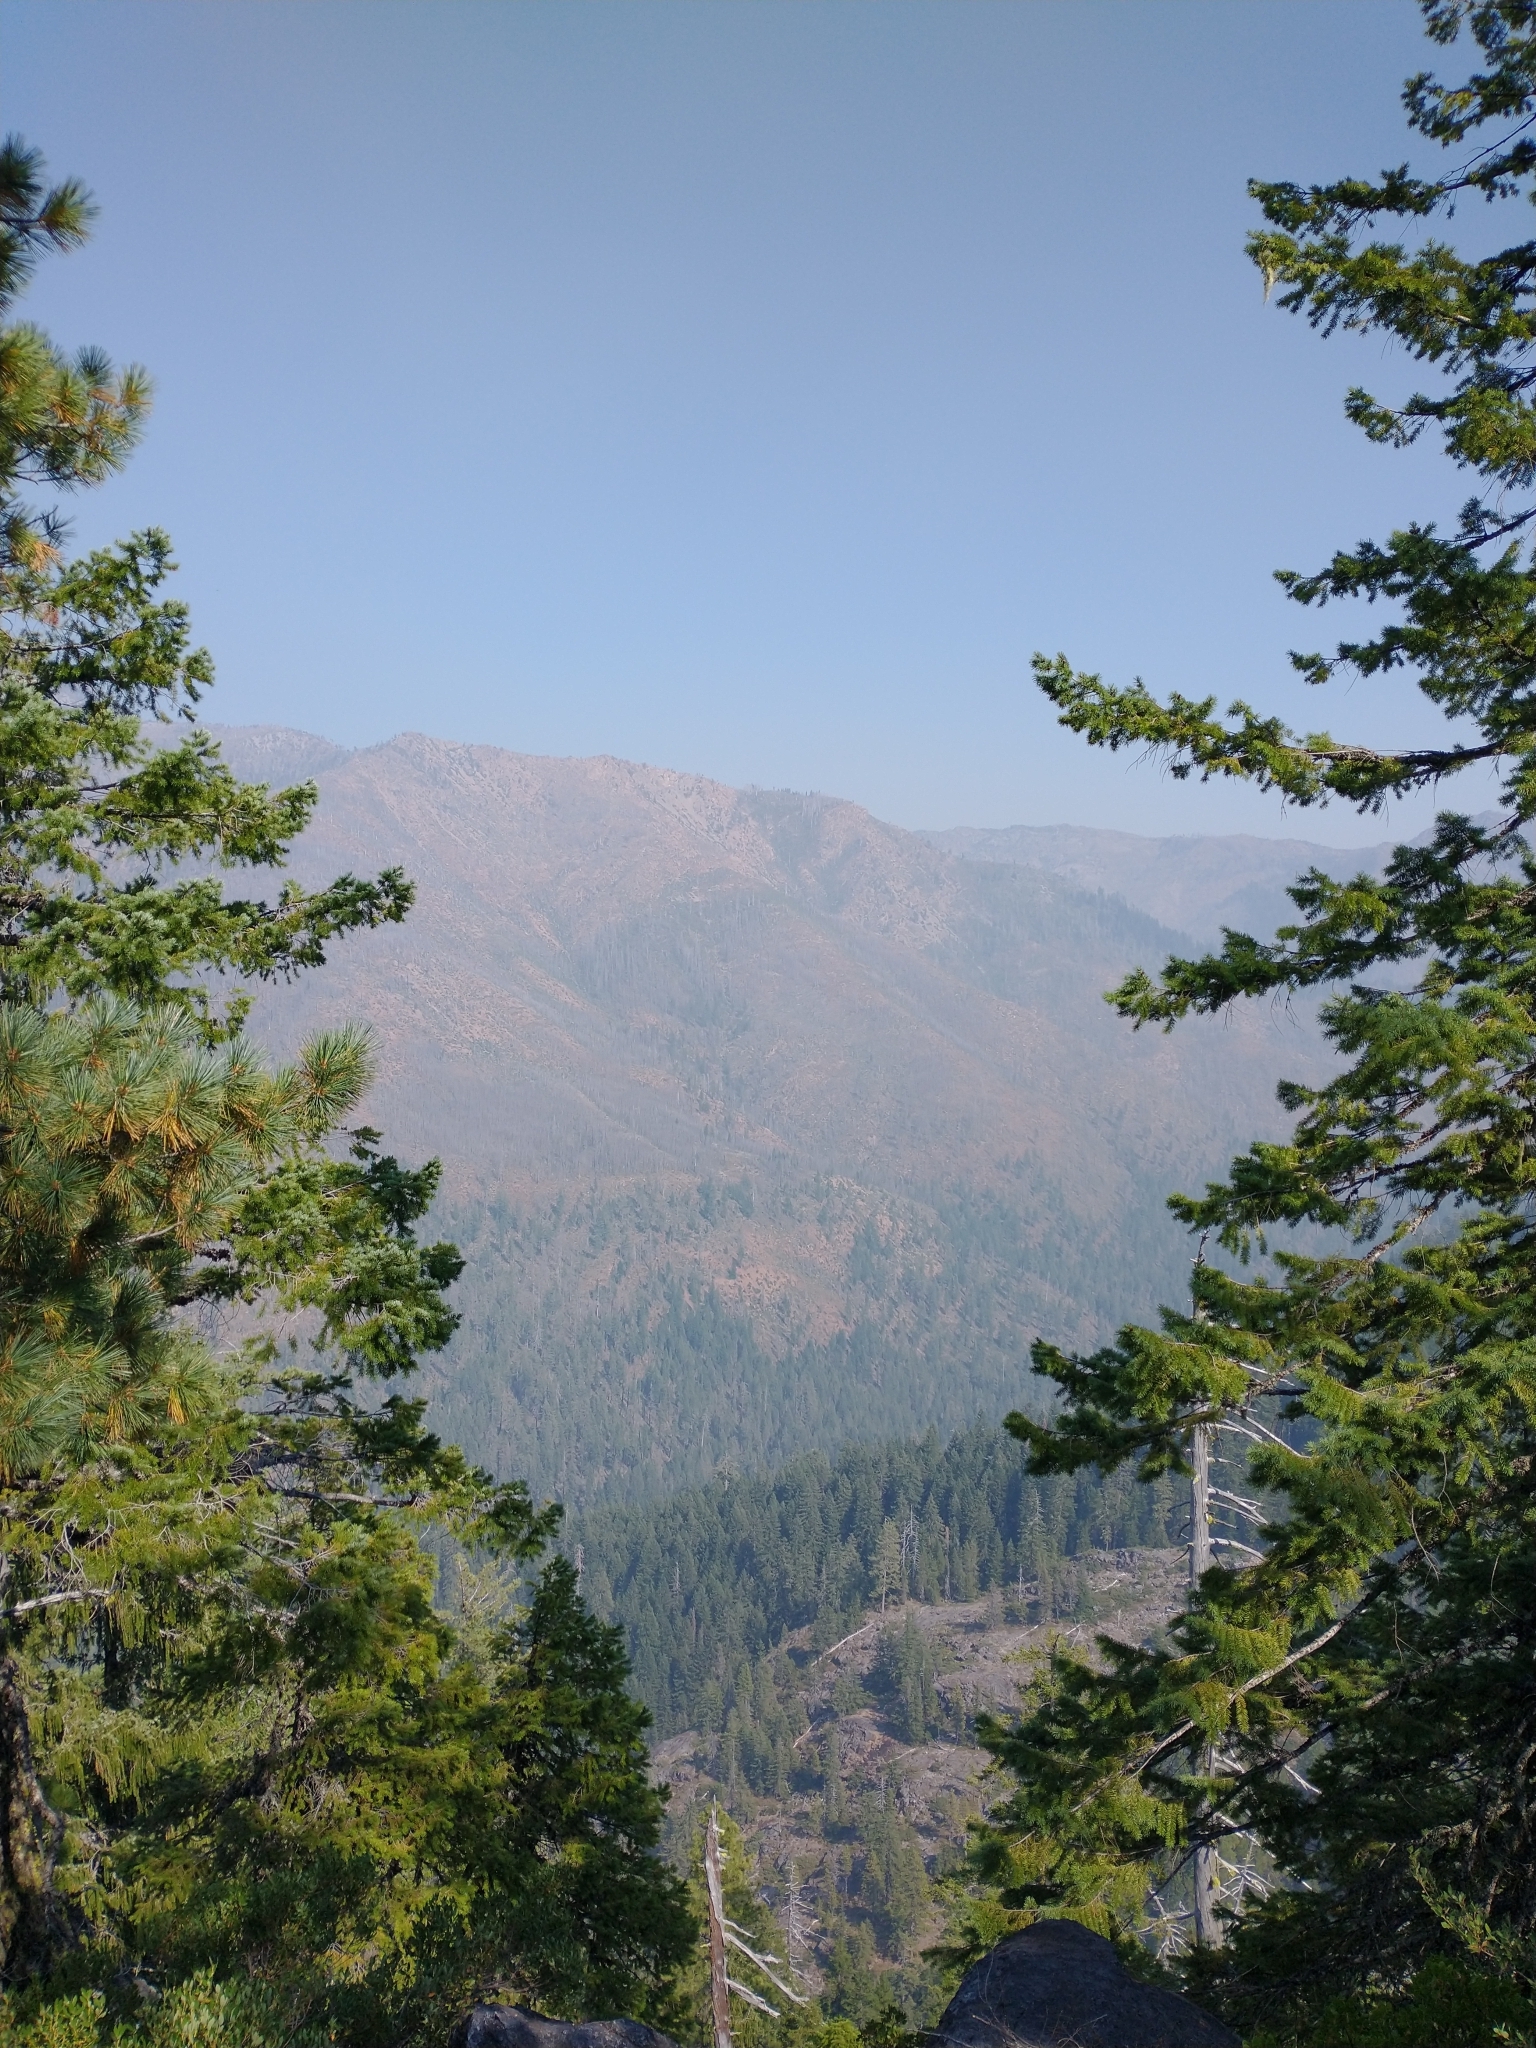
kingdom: Plantae
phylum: Tracheophyta
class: Pinopsida
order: Pinales
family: Pinaceae
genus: Pseudotsuga
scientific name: Pseudotsuga menziesii
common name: Douglas fir
